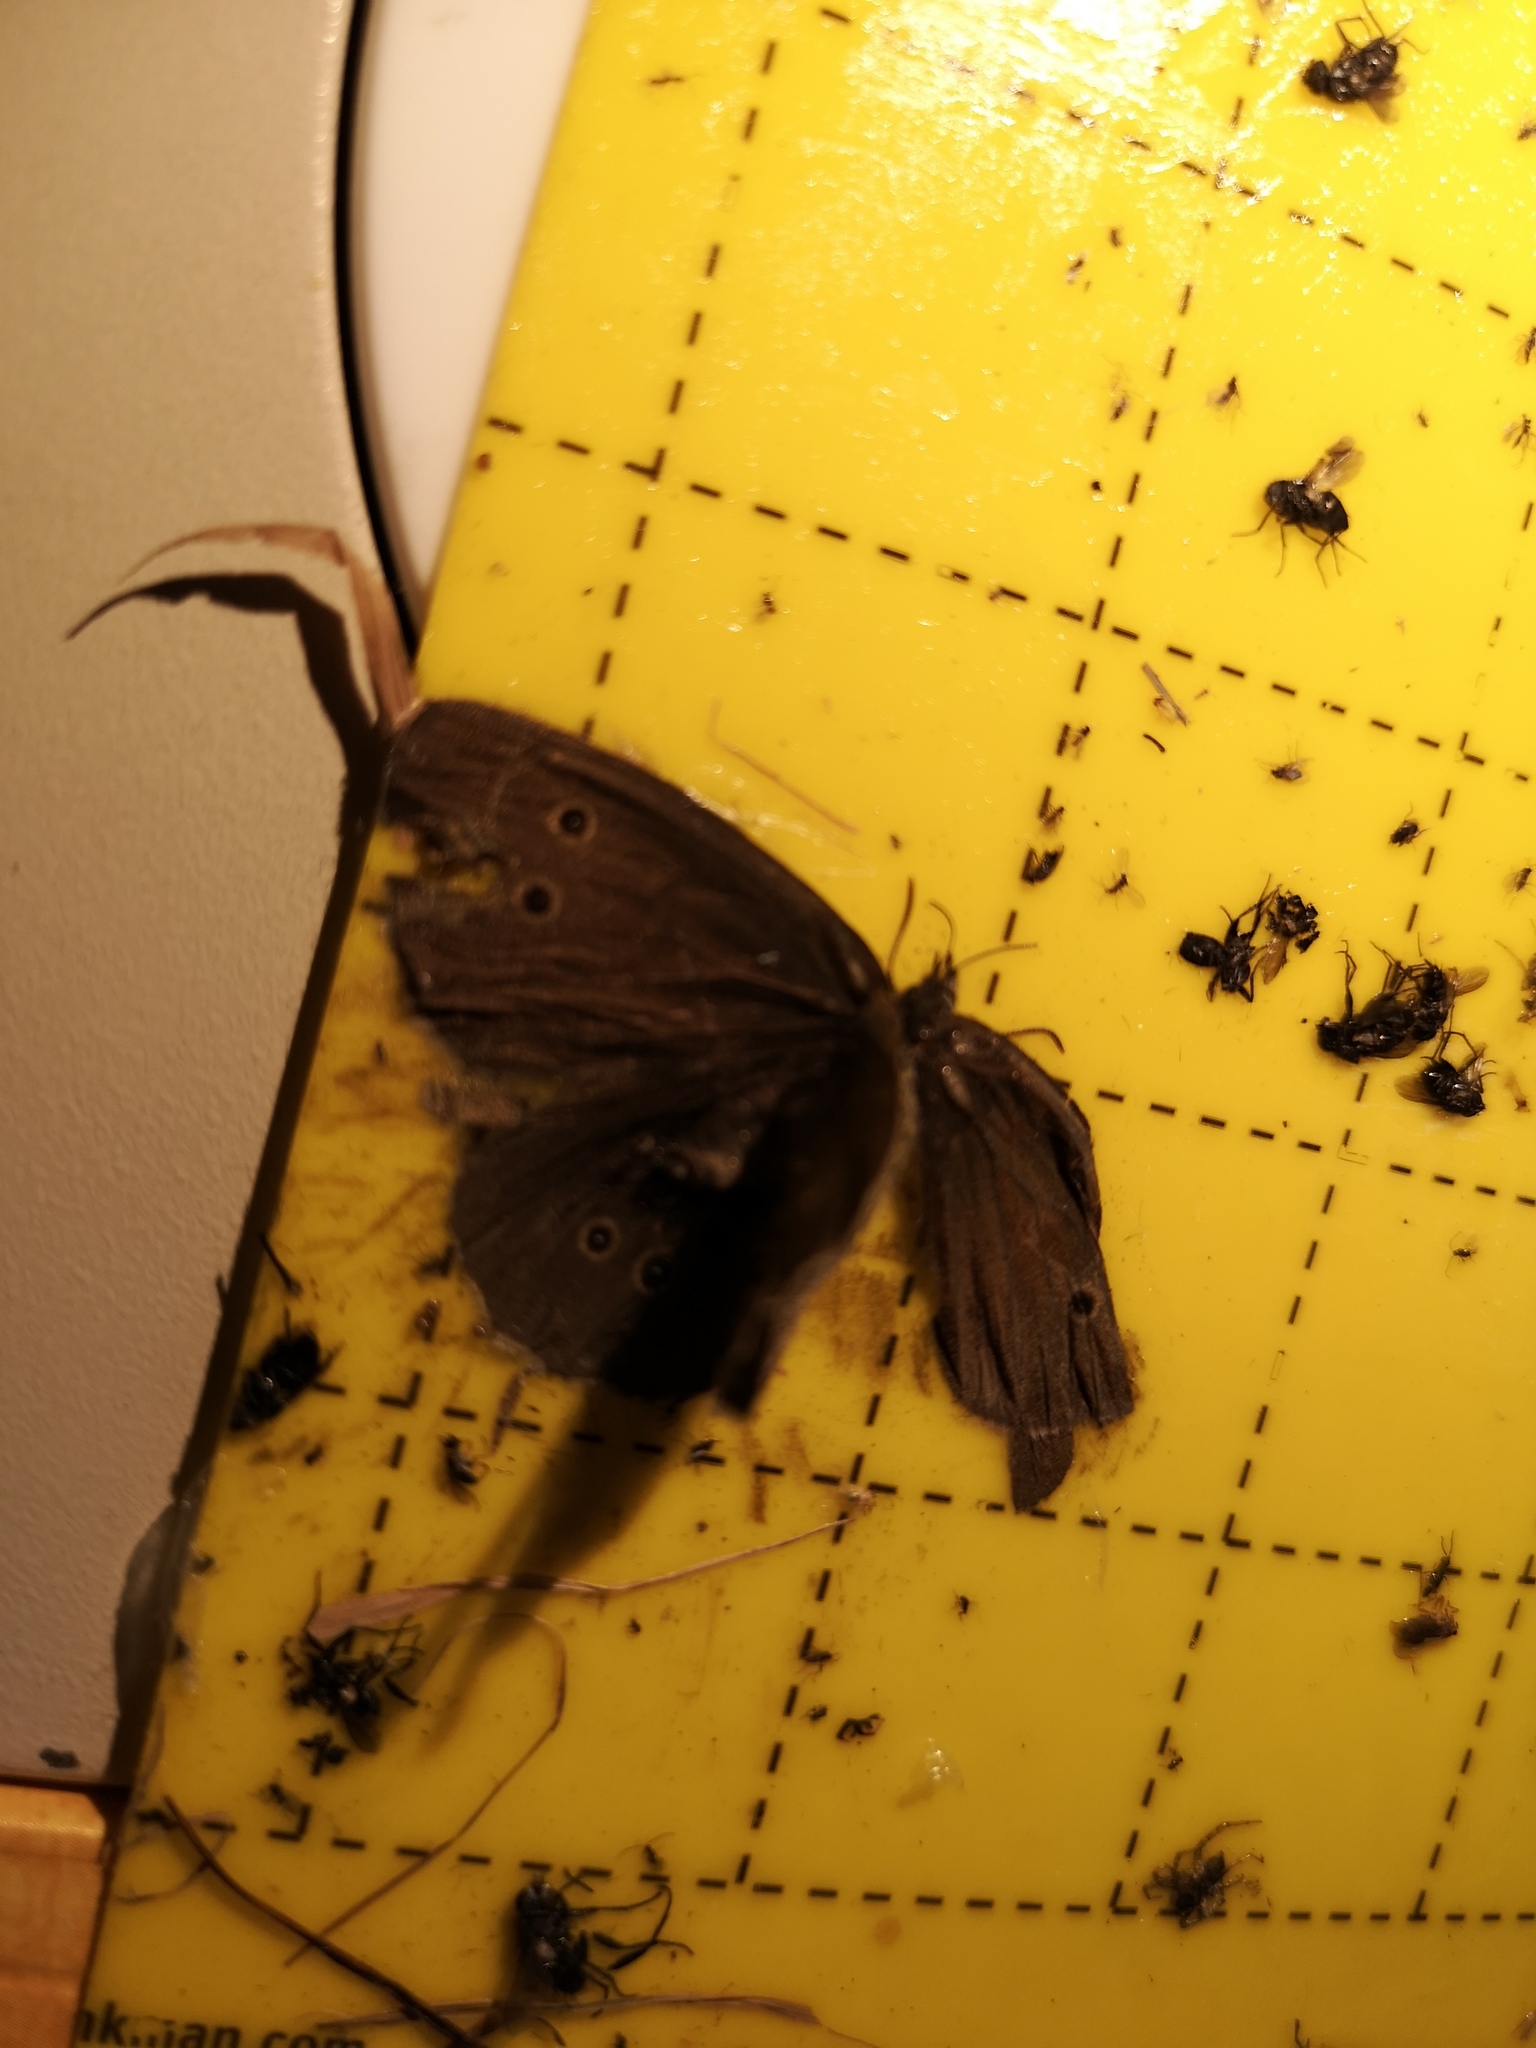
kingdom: Animalia
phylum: Arthropoda
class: Insecta
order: Lepidoptera
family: Nymphalidae
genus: Aphantopus
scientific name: Aphantopus hyperantus
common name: Ringlet
